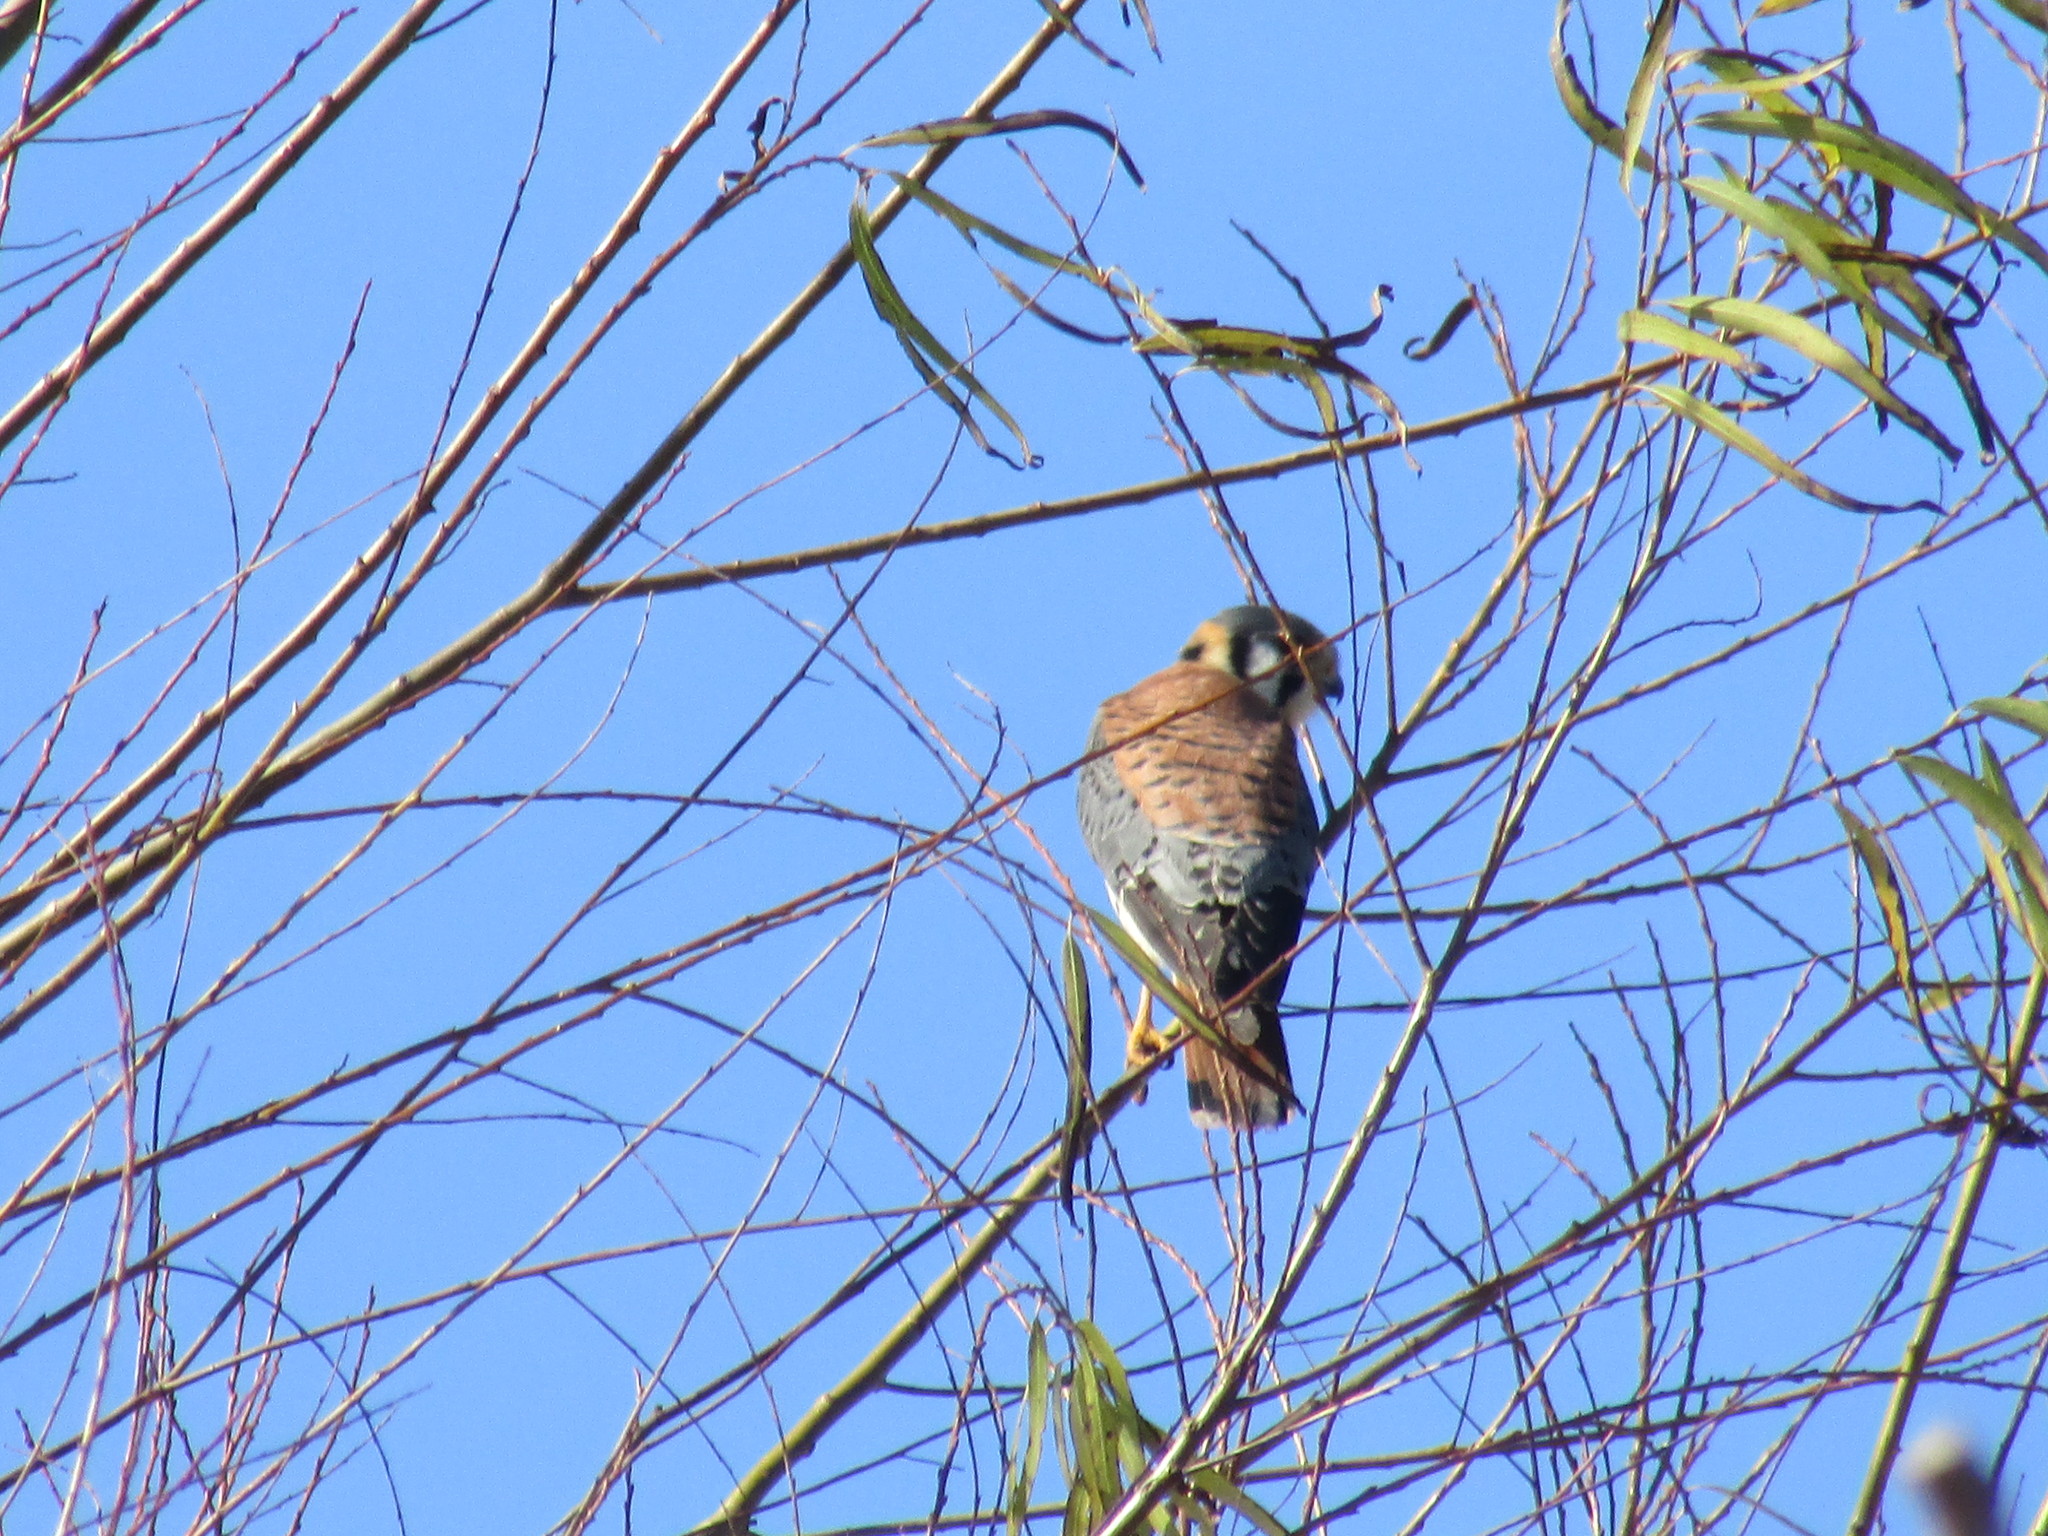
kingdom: Animalia
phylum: Chordata
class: Aves
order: Falconiformes
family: Falconidae
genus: Falco
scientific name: Falco sparverius
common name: American kestrel
